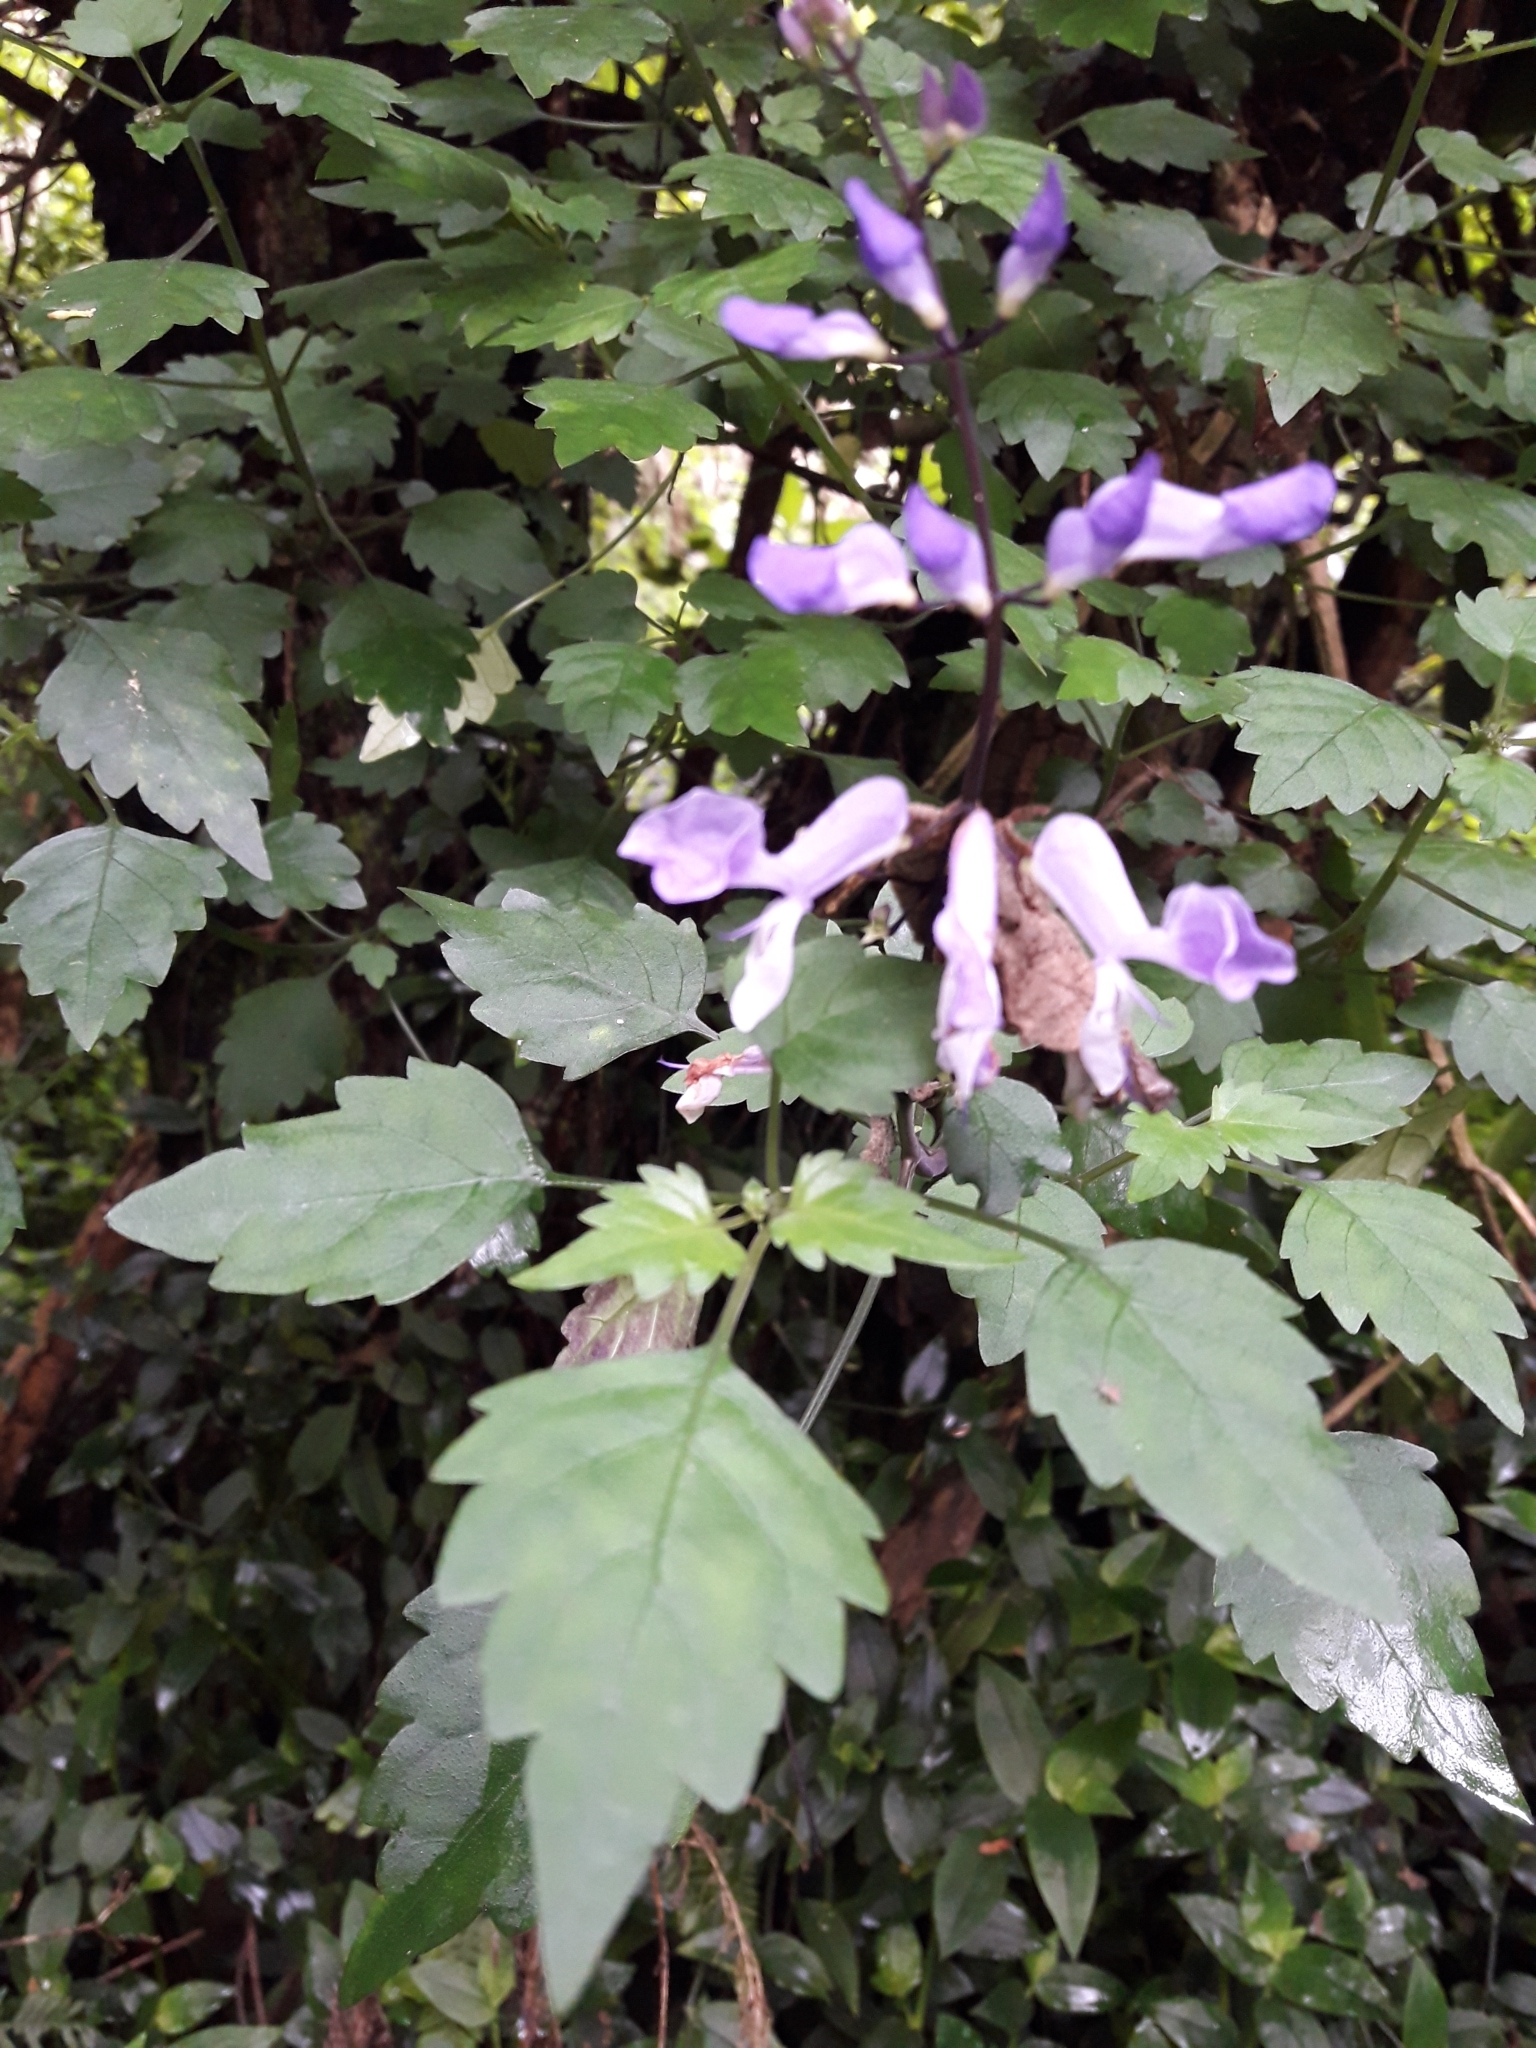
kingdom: Plantae
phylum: Tracheophyta
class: Magnoliopsida
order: Lamiales
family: Lamiaceae
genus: Plectranthus
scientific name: Plectranthus saccatus
